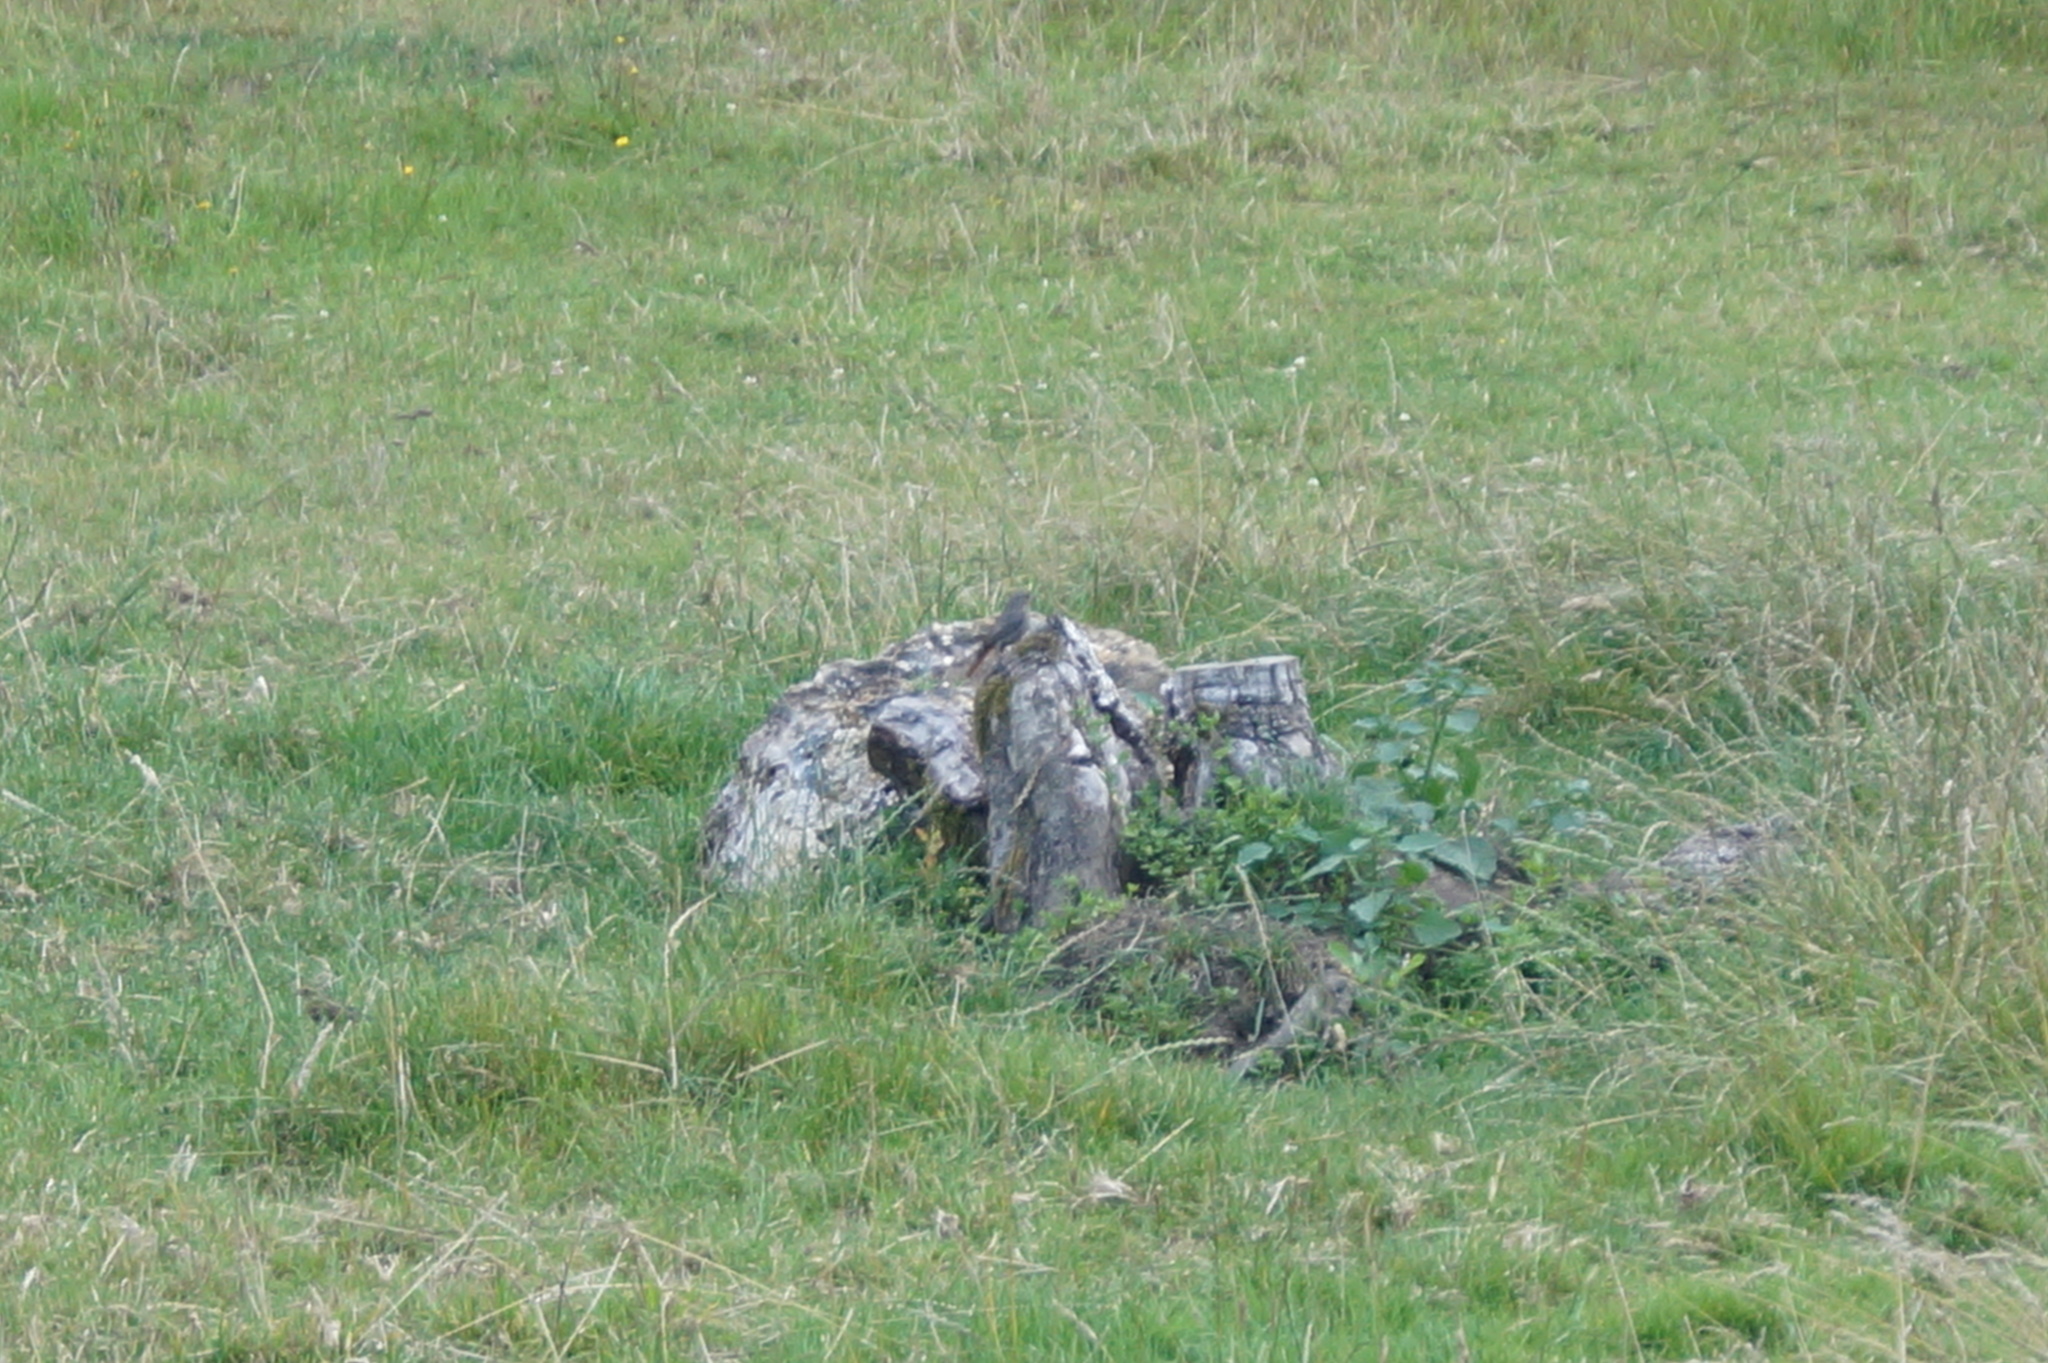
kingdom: Animalia
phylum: Chordata
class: Aves
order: Passeriformes
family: Muscicapidae
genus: Phoenicurus
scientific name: Phoenicurus ochruros
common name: Black redstart
